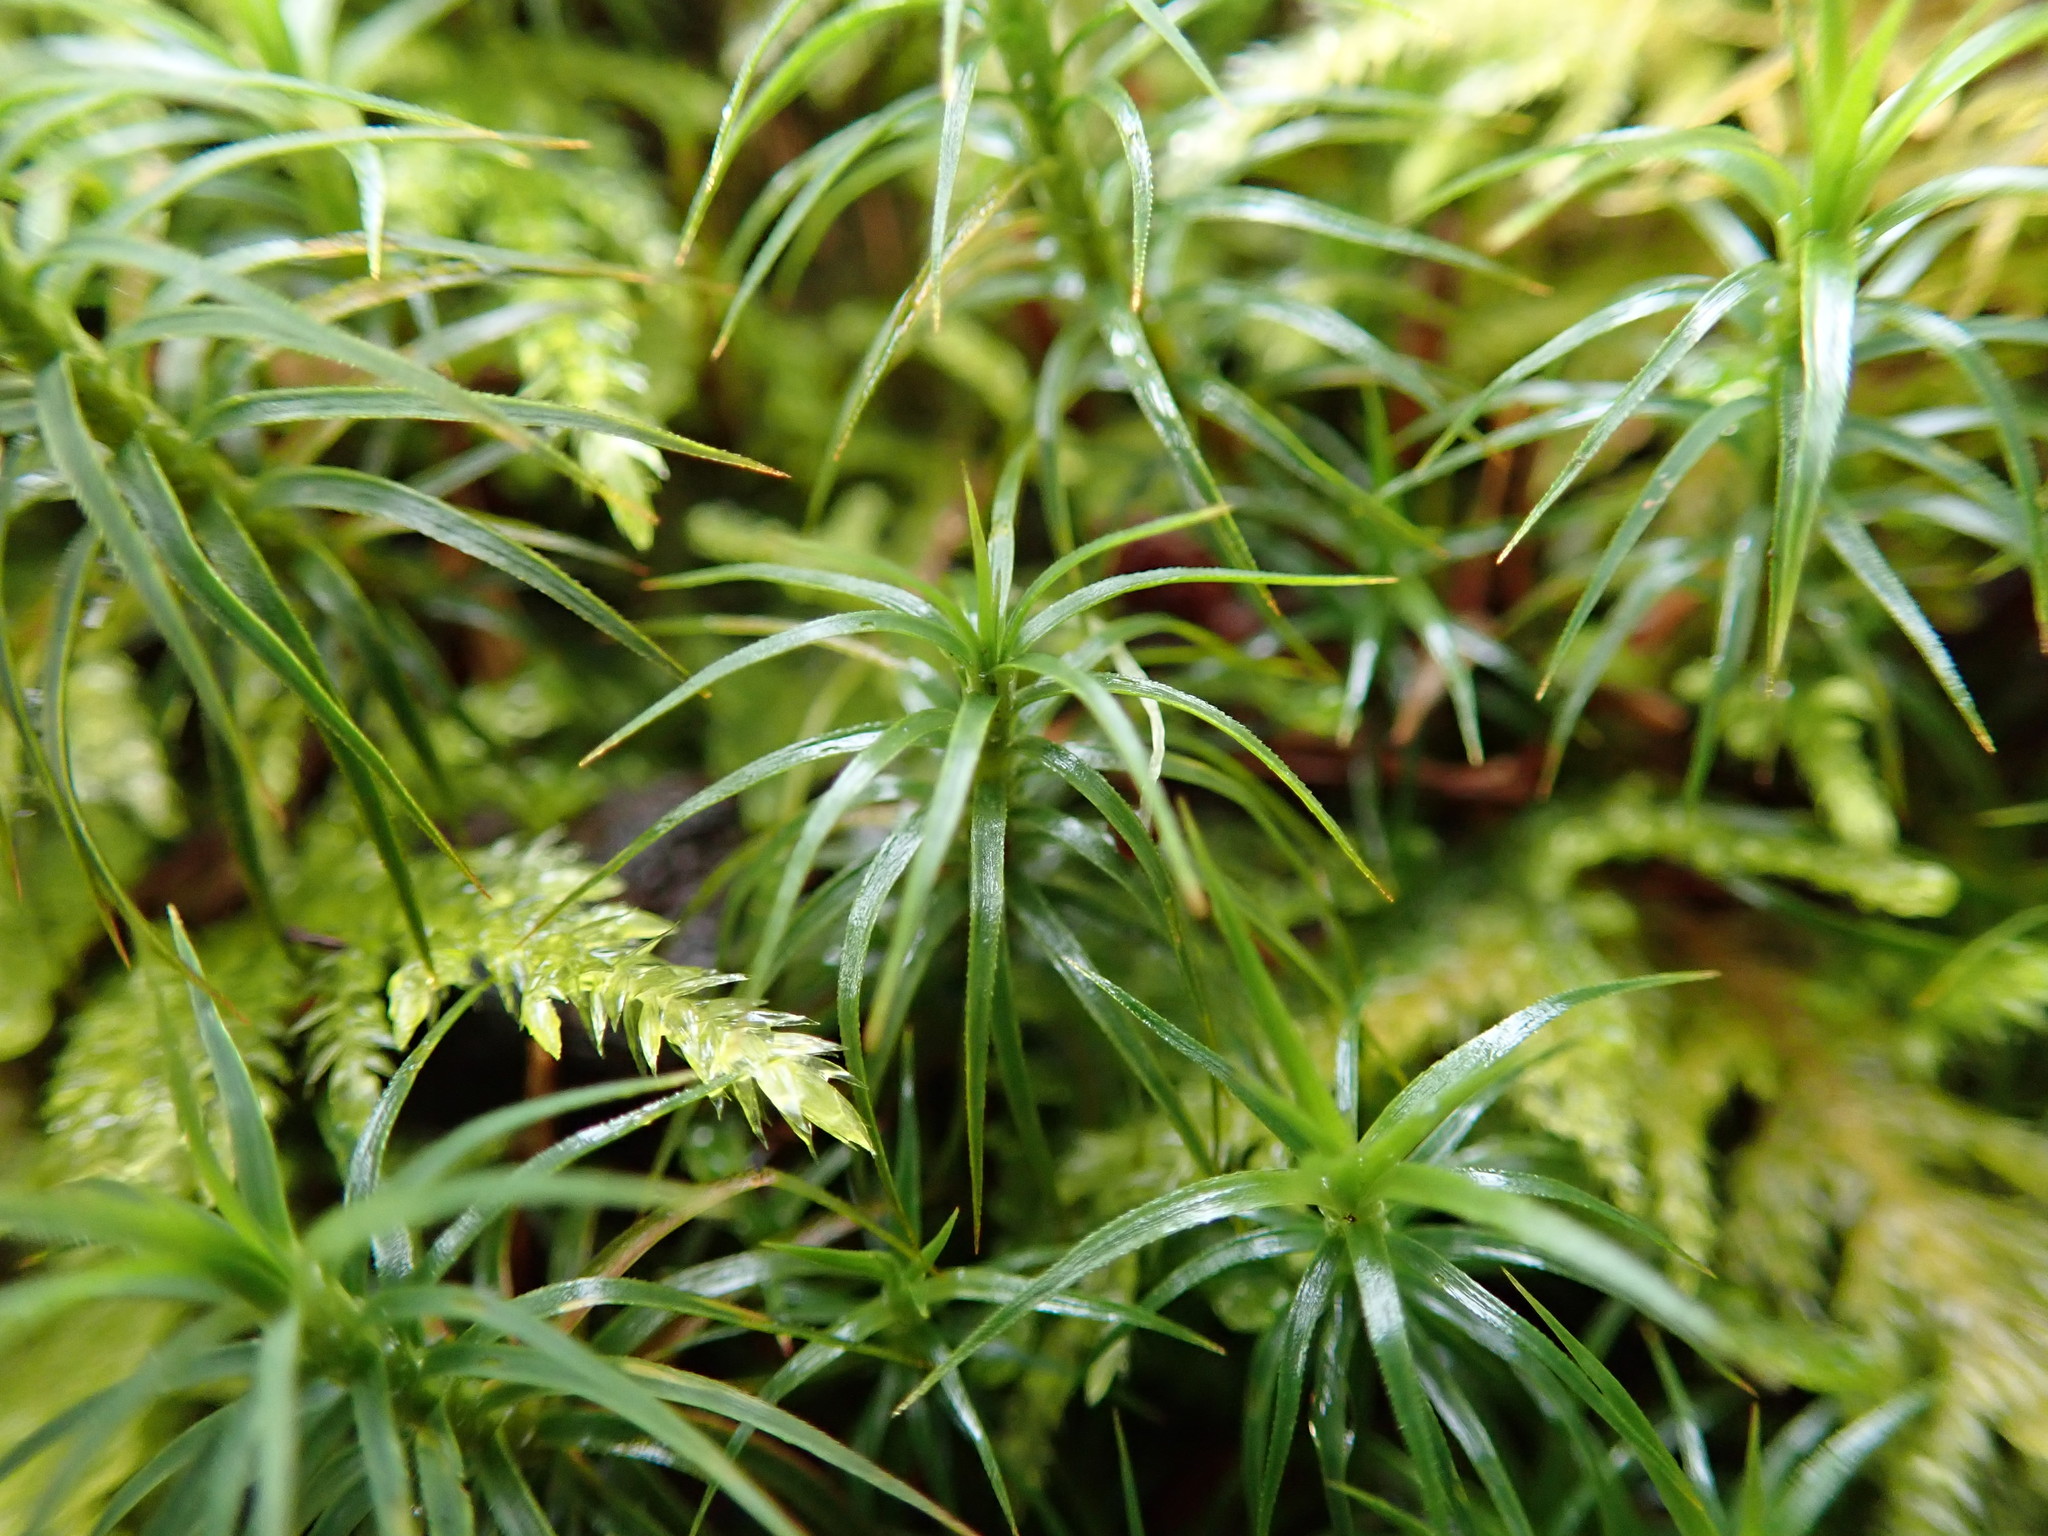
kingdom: Plantae
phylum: Bryophyta
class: Polytrichopsida
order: Polytrichales
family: Polytrichaceae
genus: Polytrichastrum
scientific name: Polytrichastrum alpinum
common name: Alpine haircap
